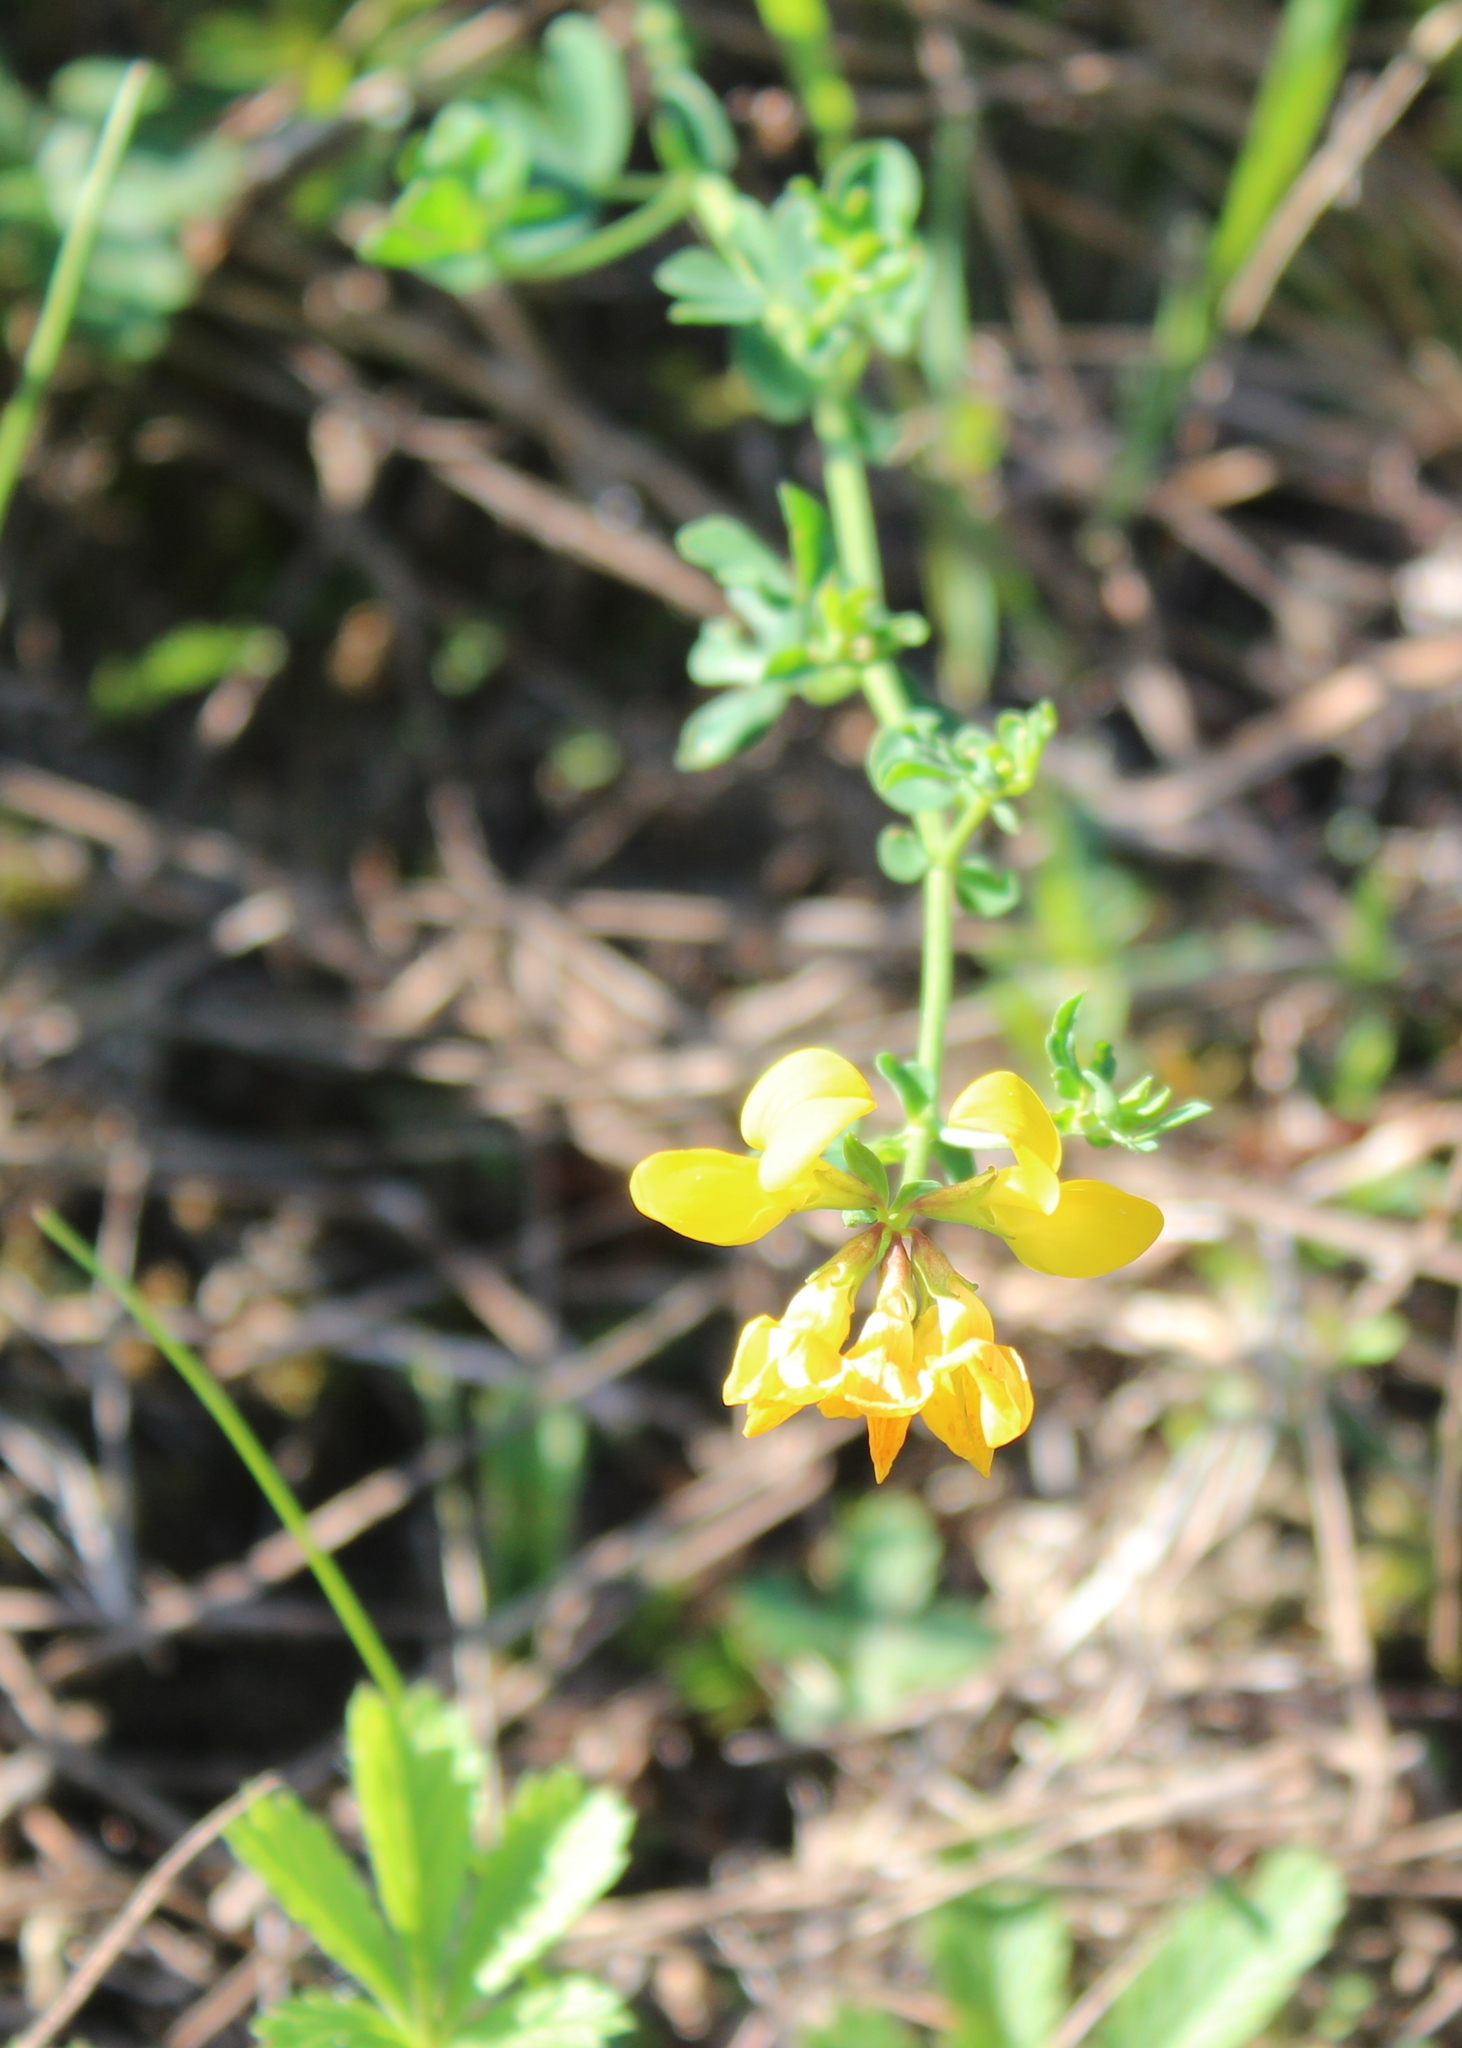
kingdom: Plantae
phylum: Tracheophyta
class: Magnoliopsida
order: Fabales
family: Fabaceae
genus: Lotus
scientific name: Lotus corniculatus
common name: Common bird's-foot-trefoil
